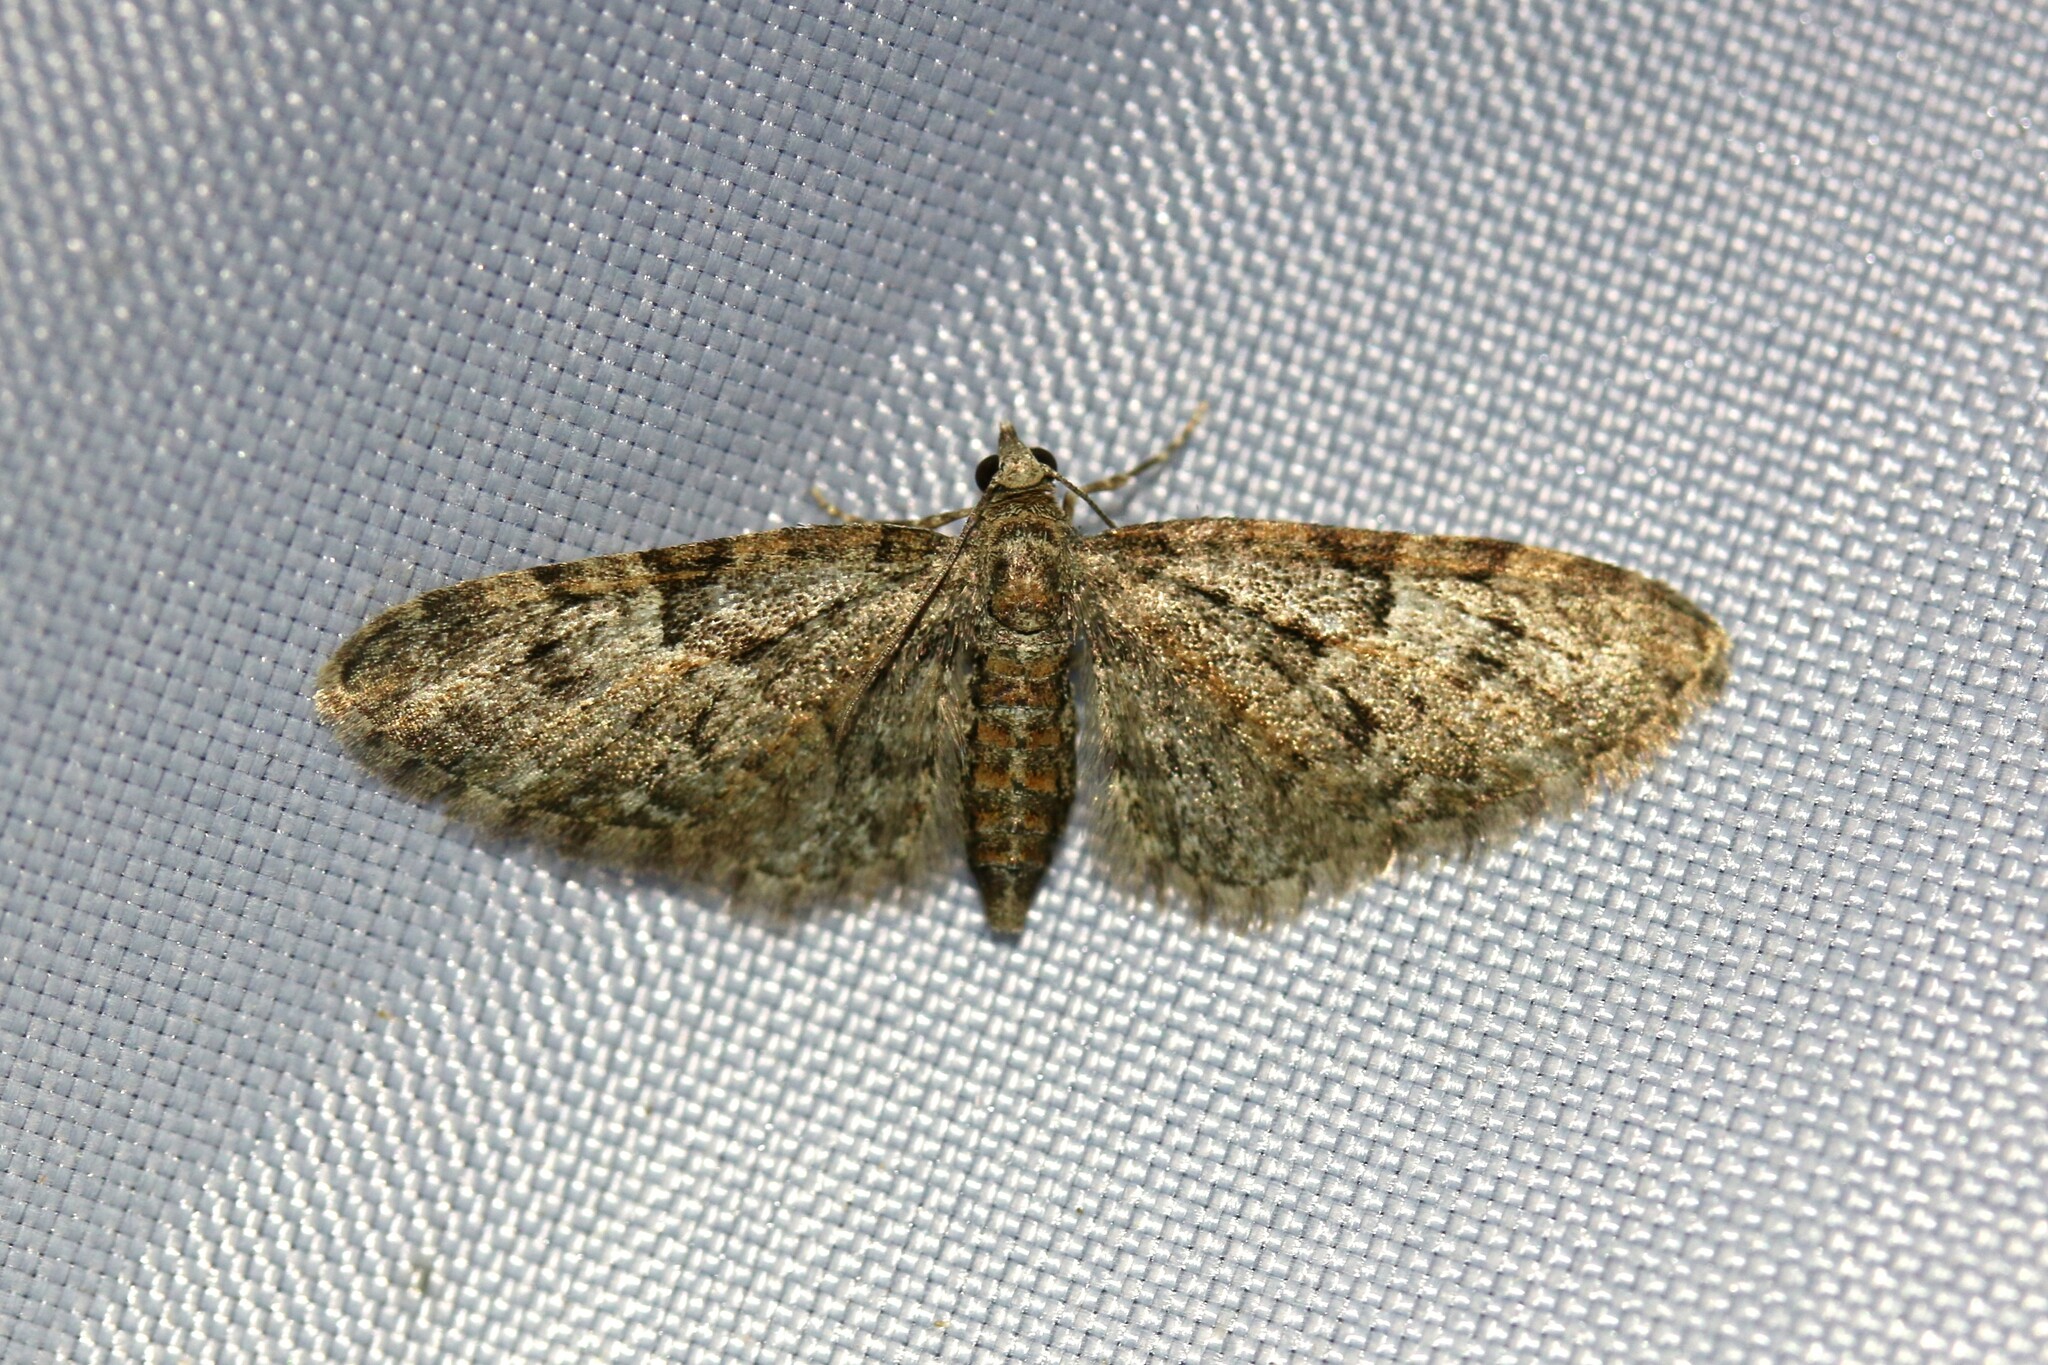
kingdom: Animalia
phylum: Arthropoda
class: Insecta
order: Lepidoptera
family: Geometridae
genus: Eupithecia
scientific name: Eupithecia dodoneata
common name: Oak-tree pug
